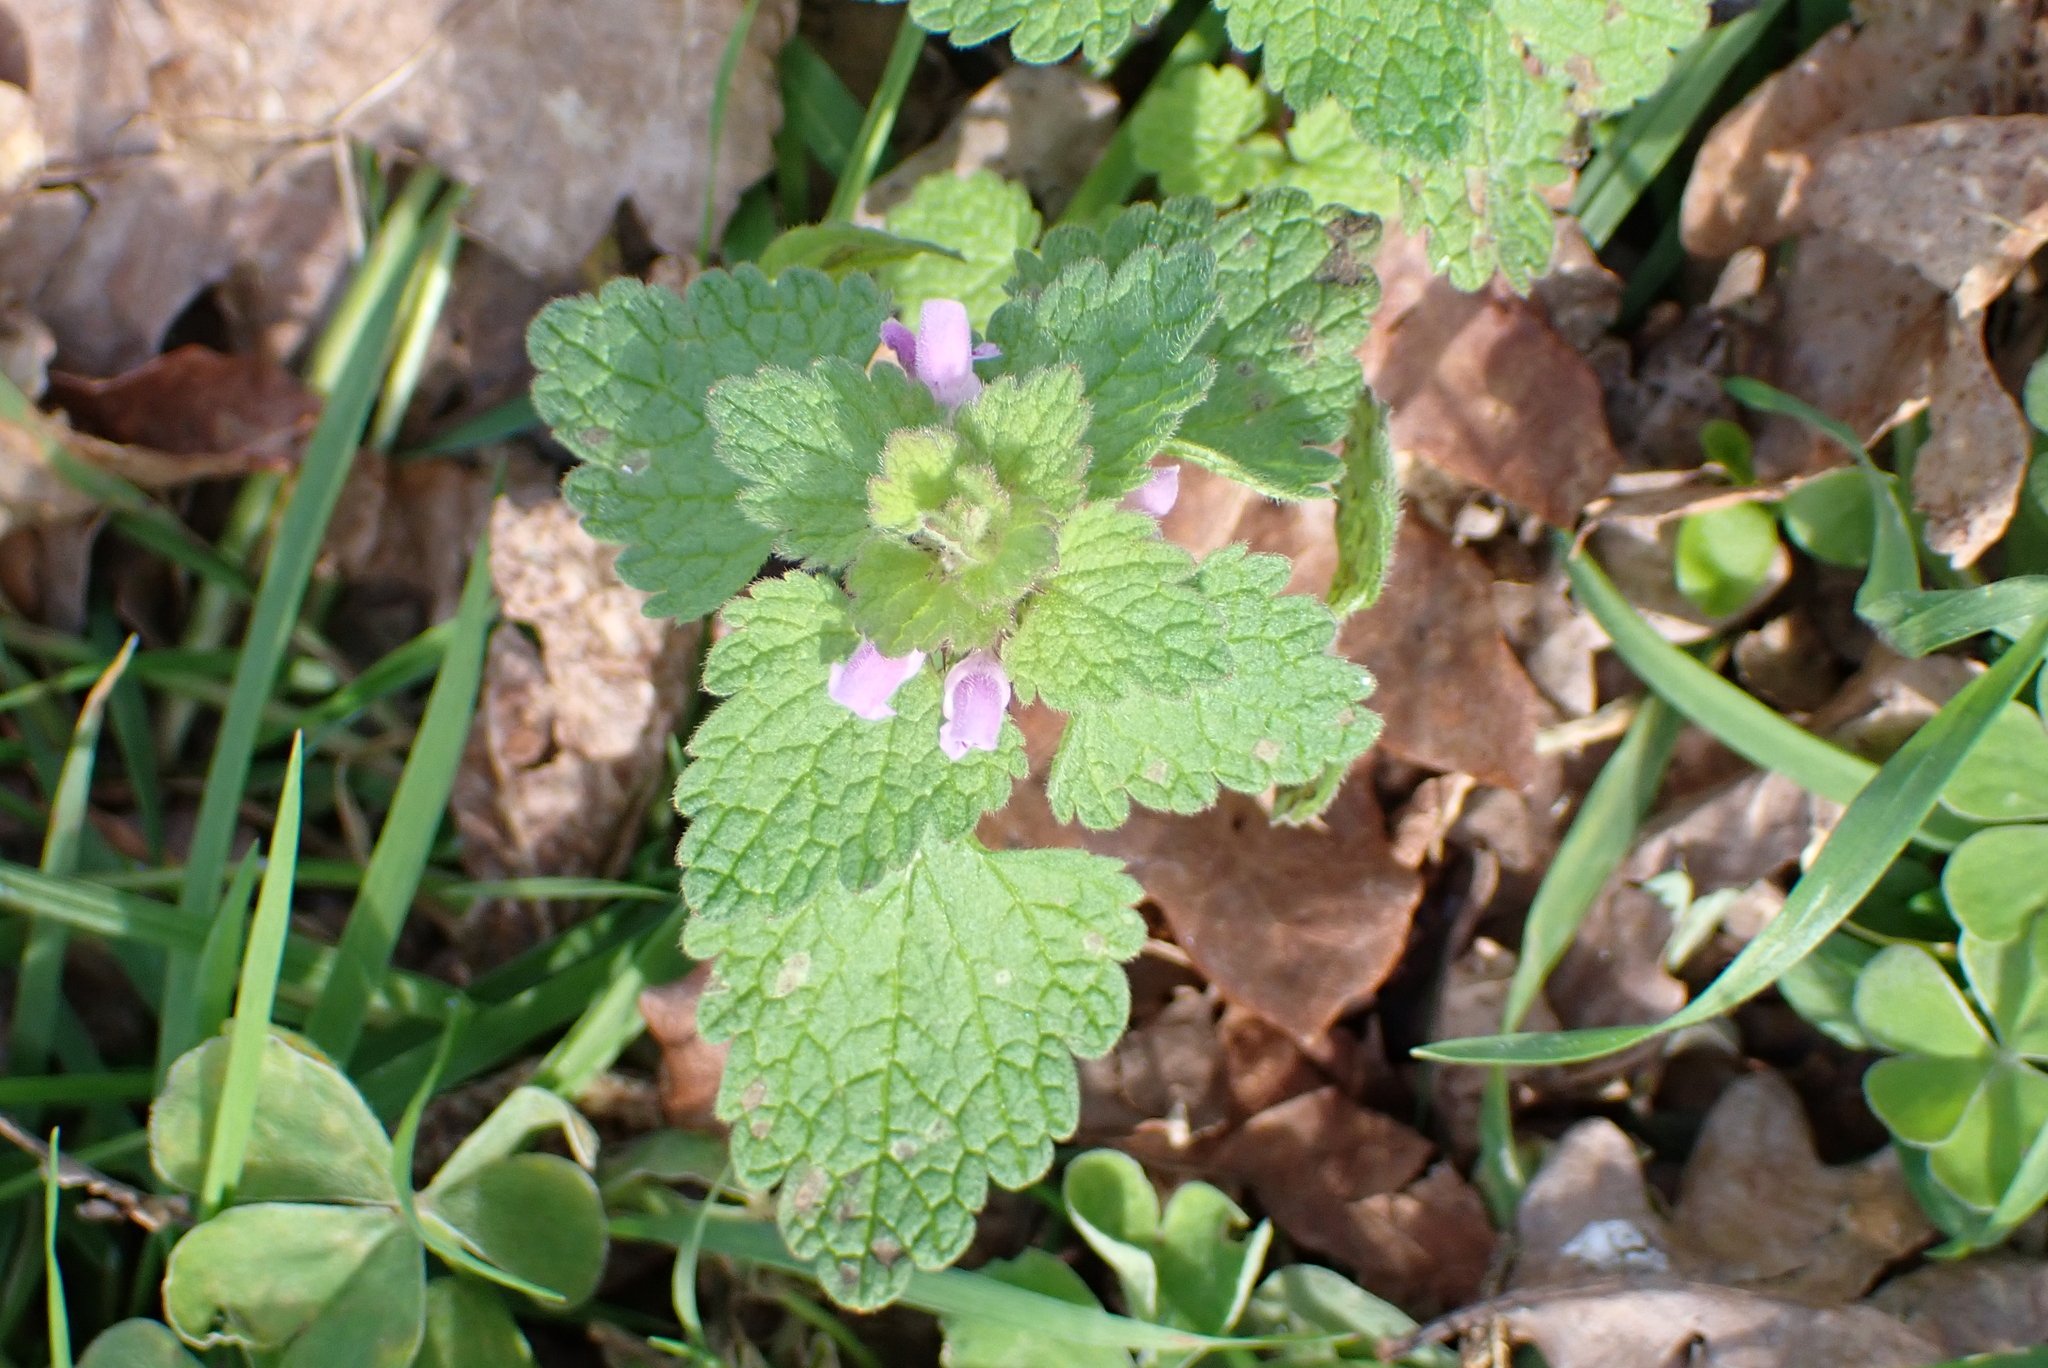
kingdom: Plantae
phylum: Tracheophyta
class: Magnoliopsida
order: Lamiales
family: Lamiaceae
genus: Lamium
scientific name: Lamium purpureum
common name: Red dead-nettle
